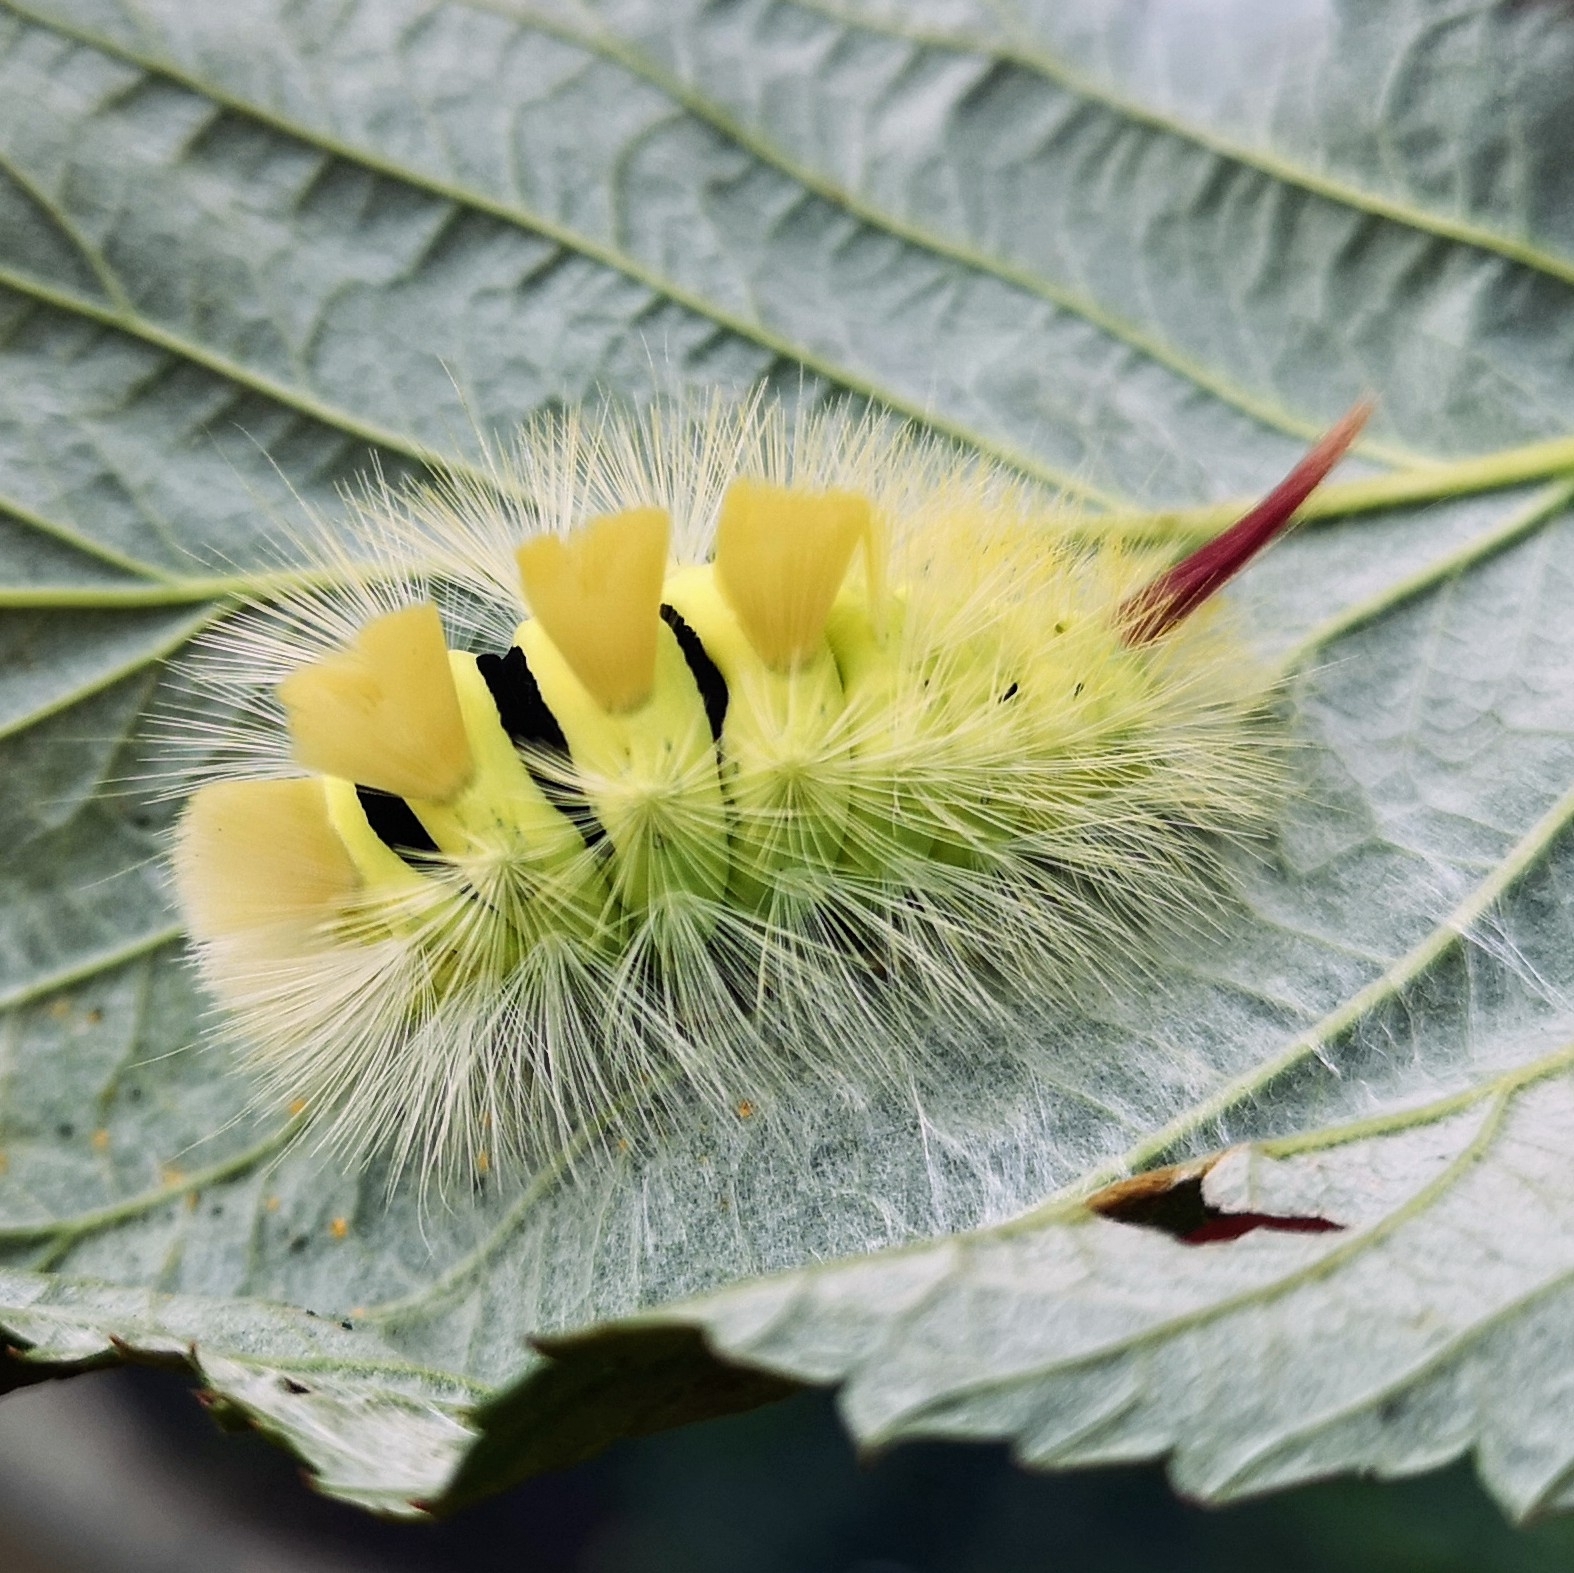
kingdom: Animalia
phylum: Arthropoda
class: Insecta
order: Lepidoptera
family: Erebidae
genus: Calliteara
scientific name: Calliteara pudibunda
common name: Pale tussock
